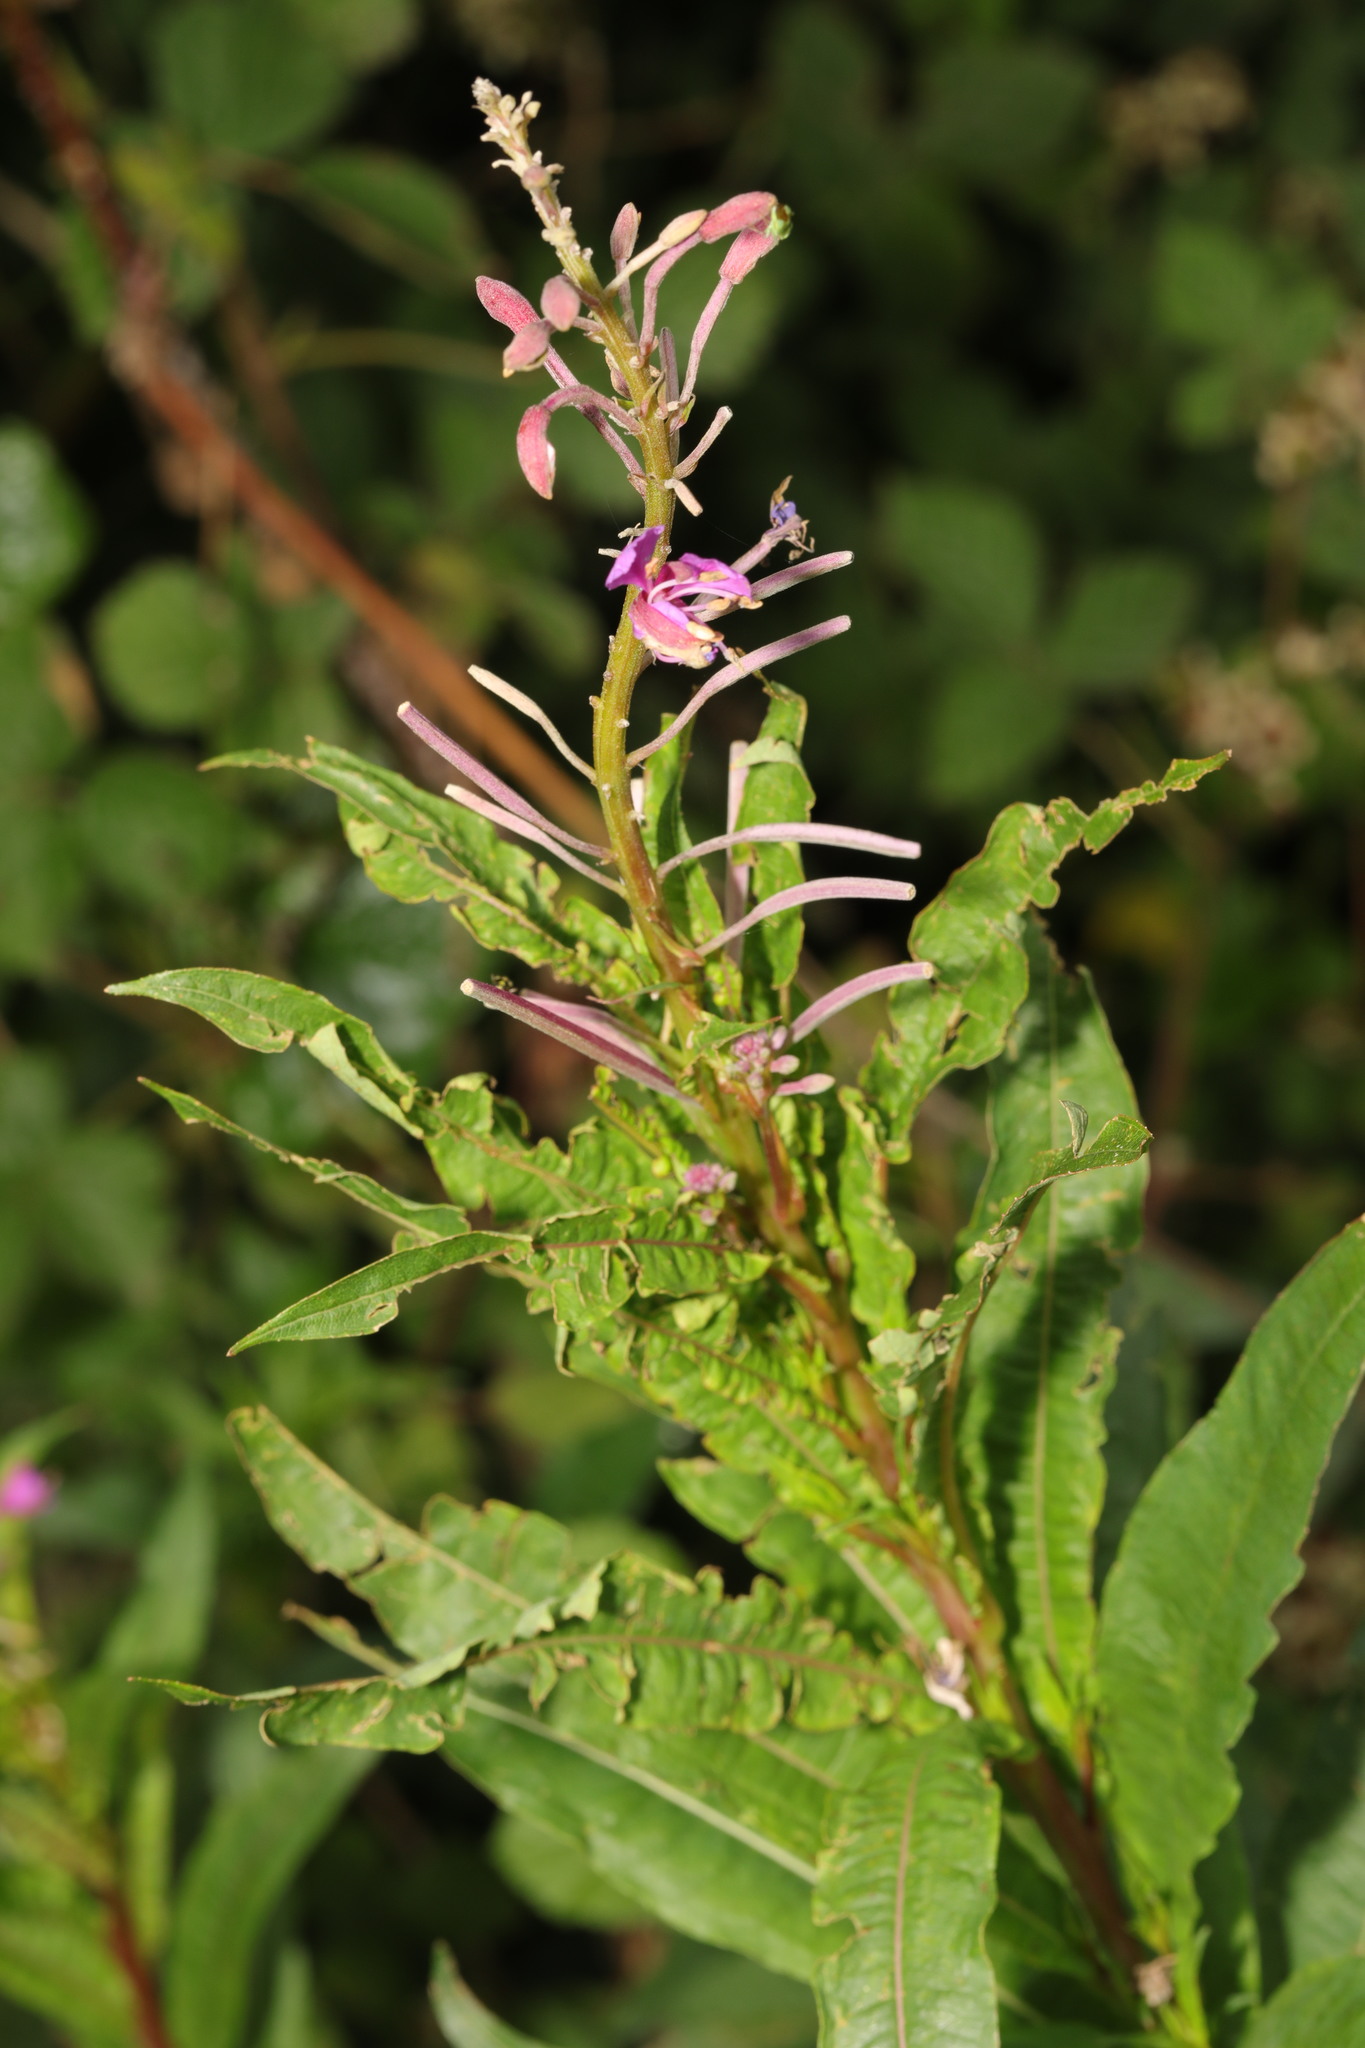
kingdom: Plantae
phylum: Tracheophyta
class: Magnoliopsida
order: Myrtales
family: Onagraceae
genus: Chamaenerion
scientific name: Chamaenerion angustifolium
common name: Fireweed
